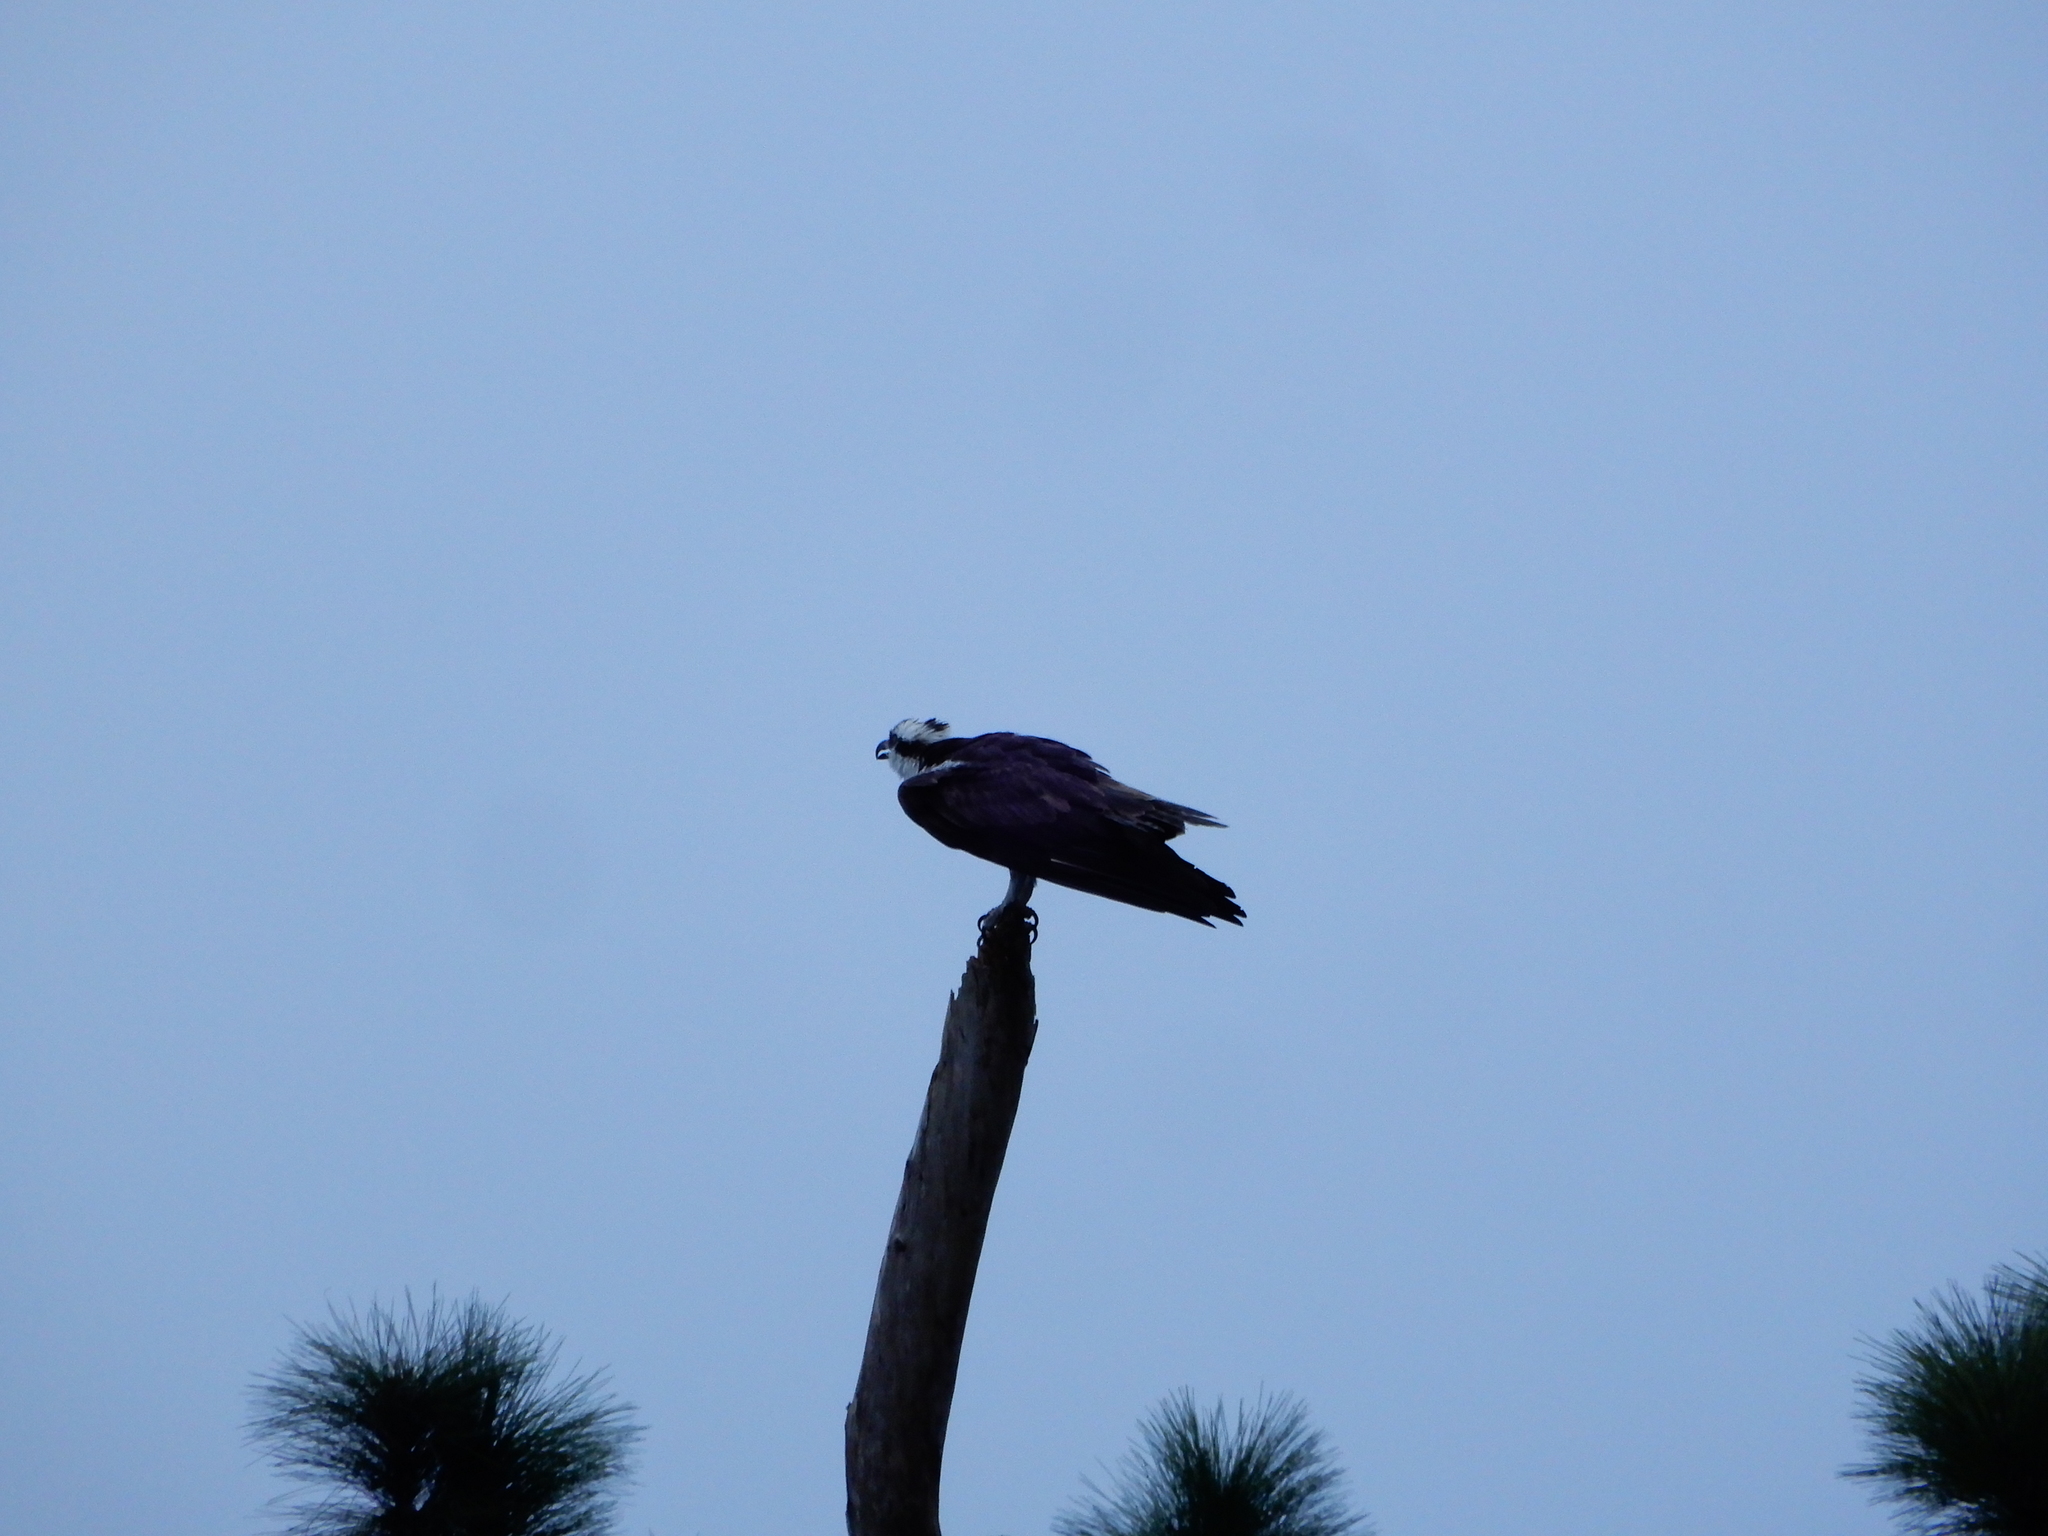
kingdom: Animalia
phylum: Chordata
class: Aves
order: Accipitriformes
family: Pandionidae
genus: Pandion
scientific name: Pandion haliaetus
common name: Osprey
